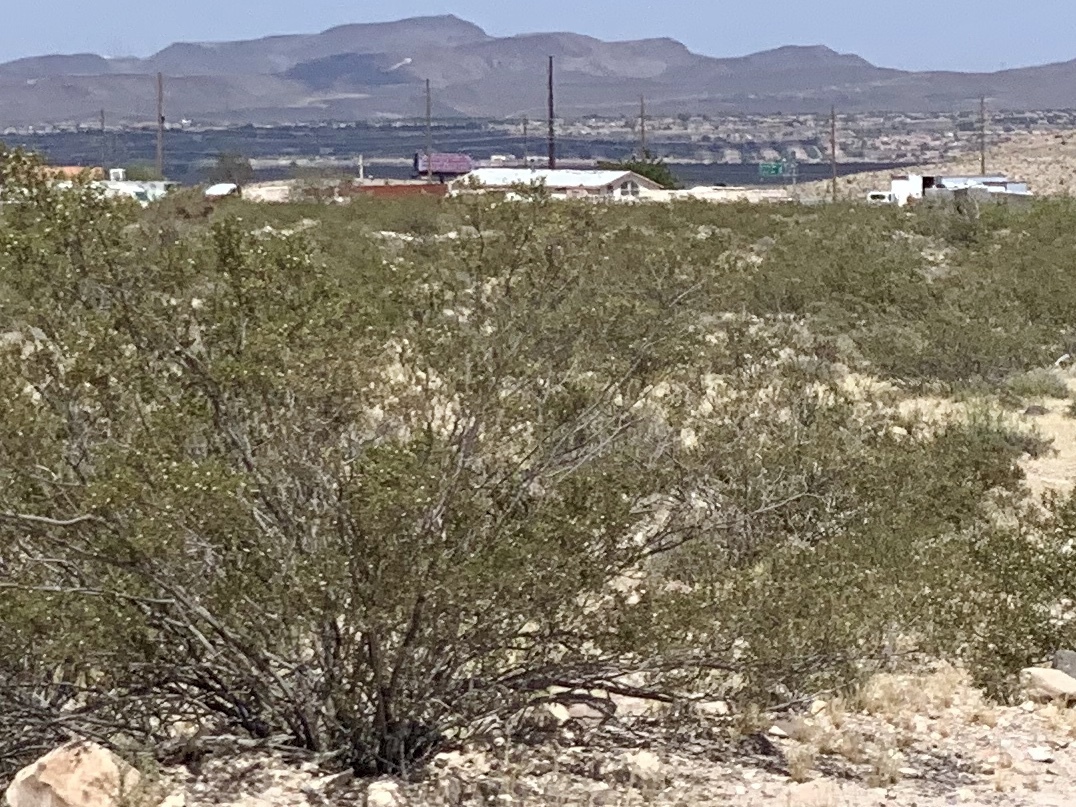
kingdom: Plantae
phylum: Tracheophyta
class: Magnoliopsida
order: Zygophyllales
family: Zygophyllaceae
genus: Larrea
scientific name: Larrea tridentata
